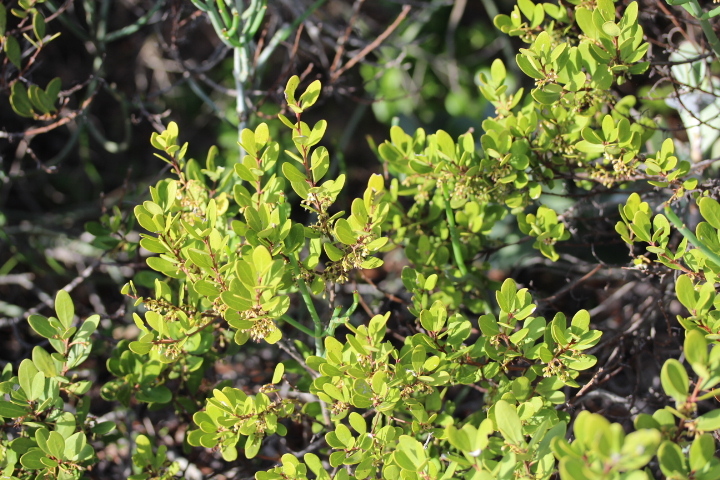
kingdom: Plantae
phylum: Tracheophyta
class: Magnoliopsida
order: Ericales
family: Ebenaceae
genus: Euclea
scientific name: Euclea racemosa
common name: Dune guarri
